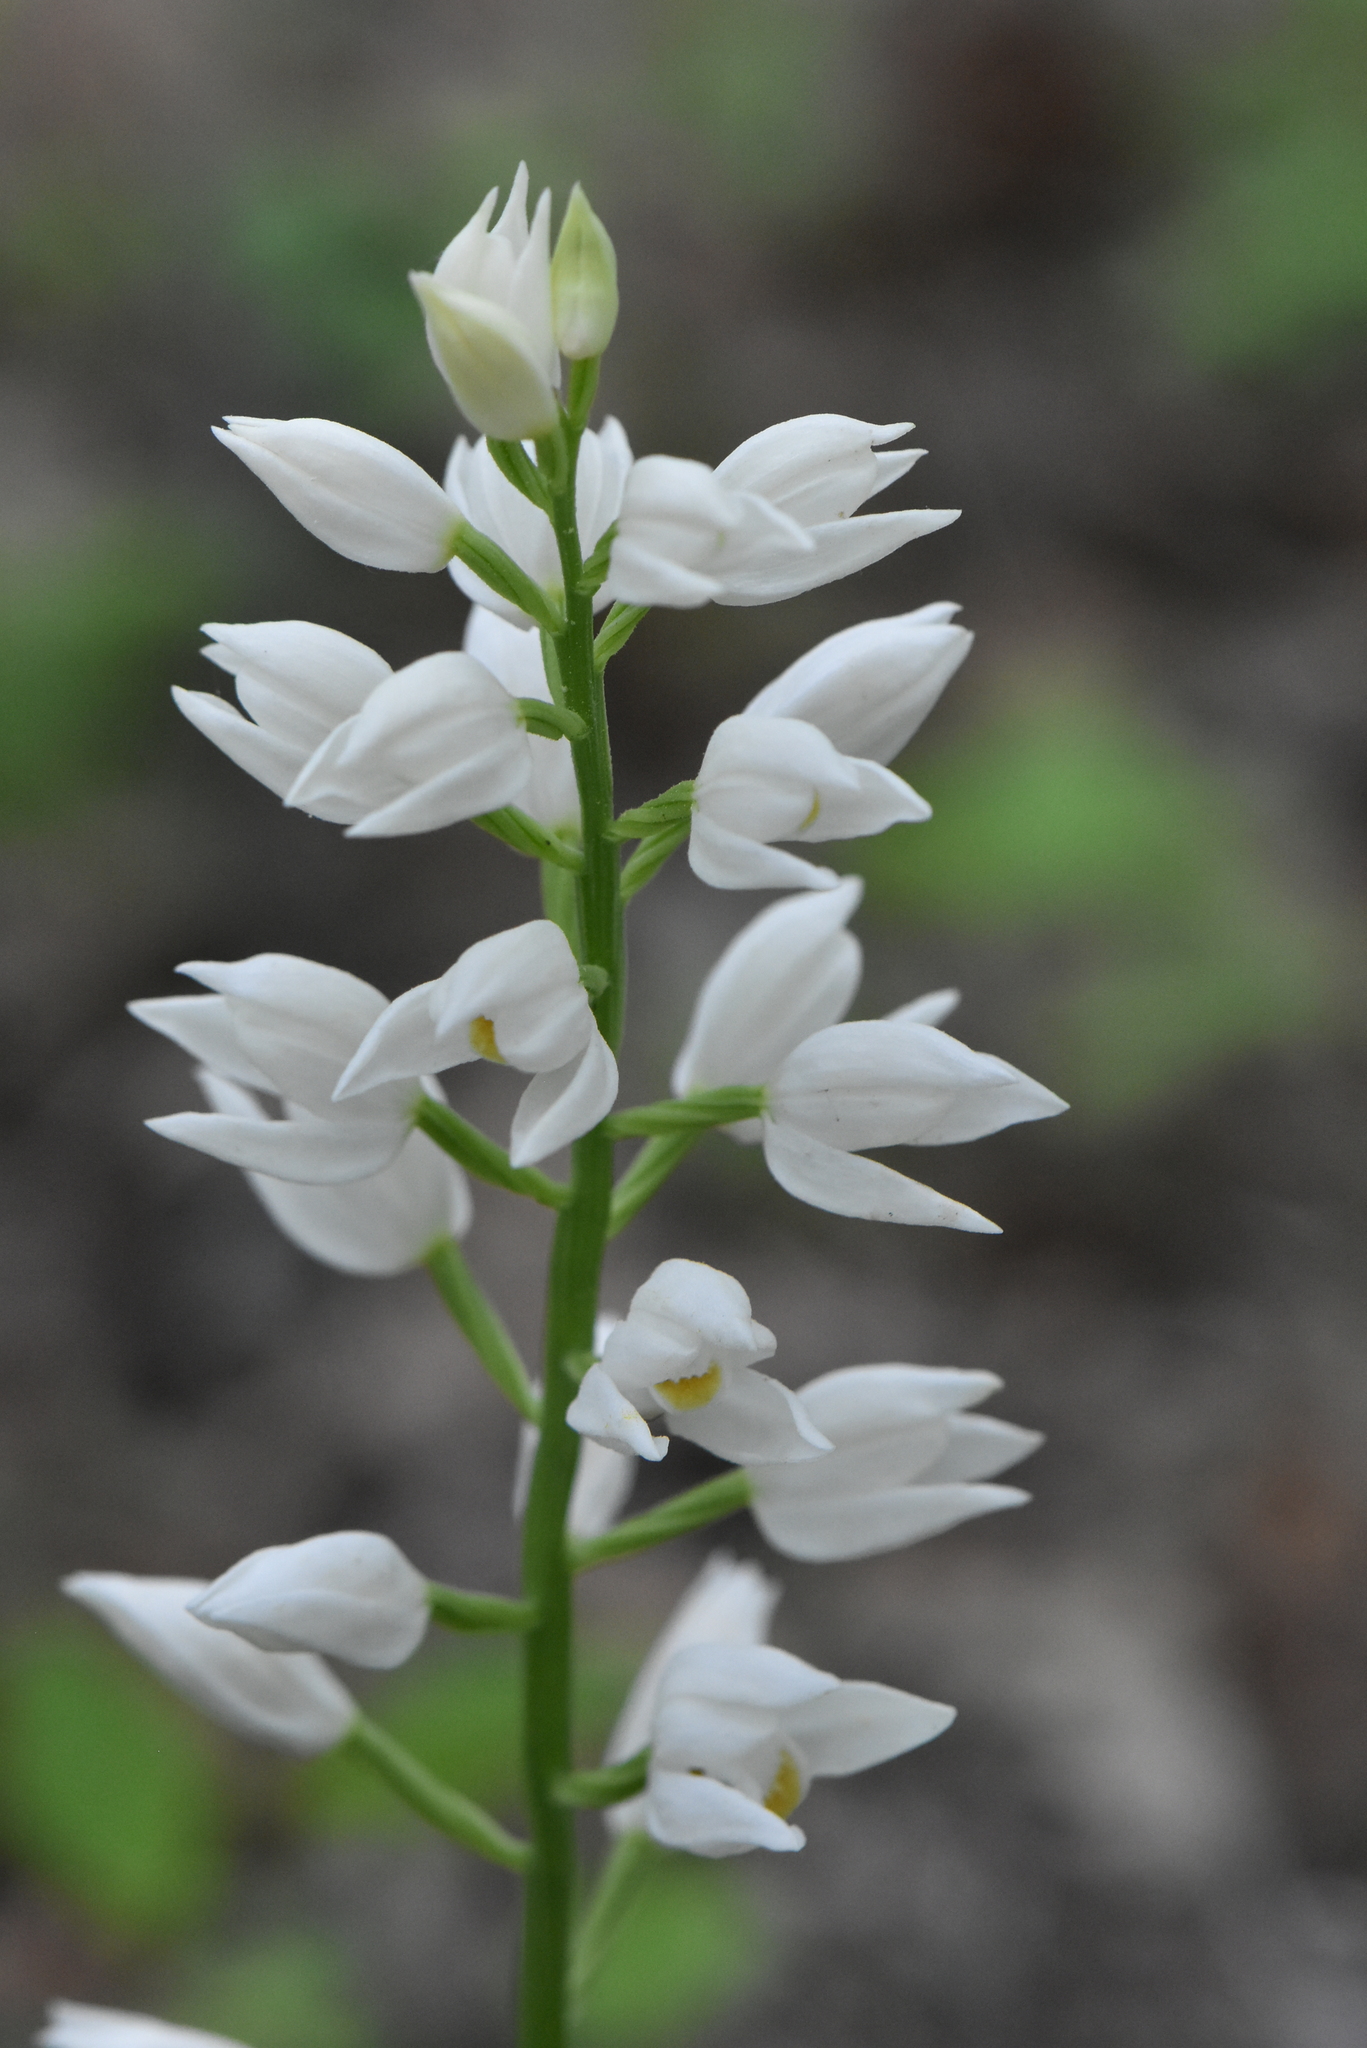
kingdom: Plantae
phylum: Tracheophyta
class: Liliopsida
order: Asparagales
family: Orchidaceae
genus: Cephalanthera
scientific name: Cephalanthera longifolia
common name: Narrow-leaved helleborine
